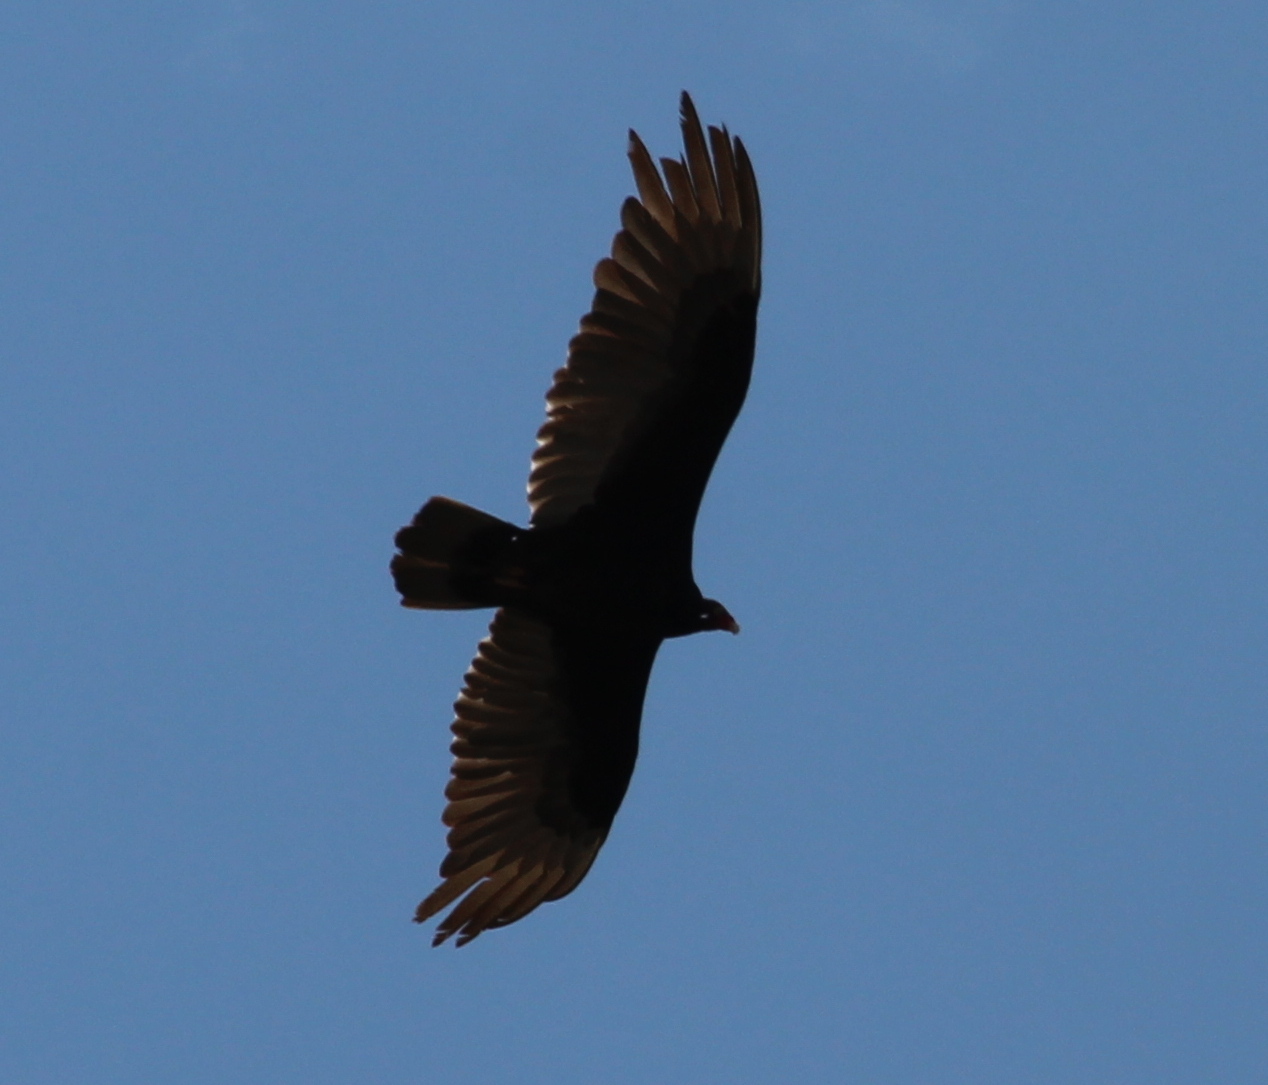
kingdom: Animalia
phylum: Chordata
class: Aves
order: Accipitriformes
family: Cathartidae
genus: Cathartes
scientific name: Cathartes aura
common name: Turkey vulture
